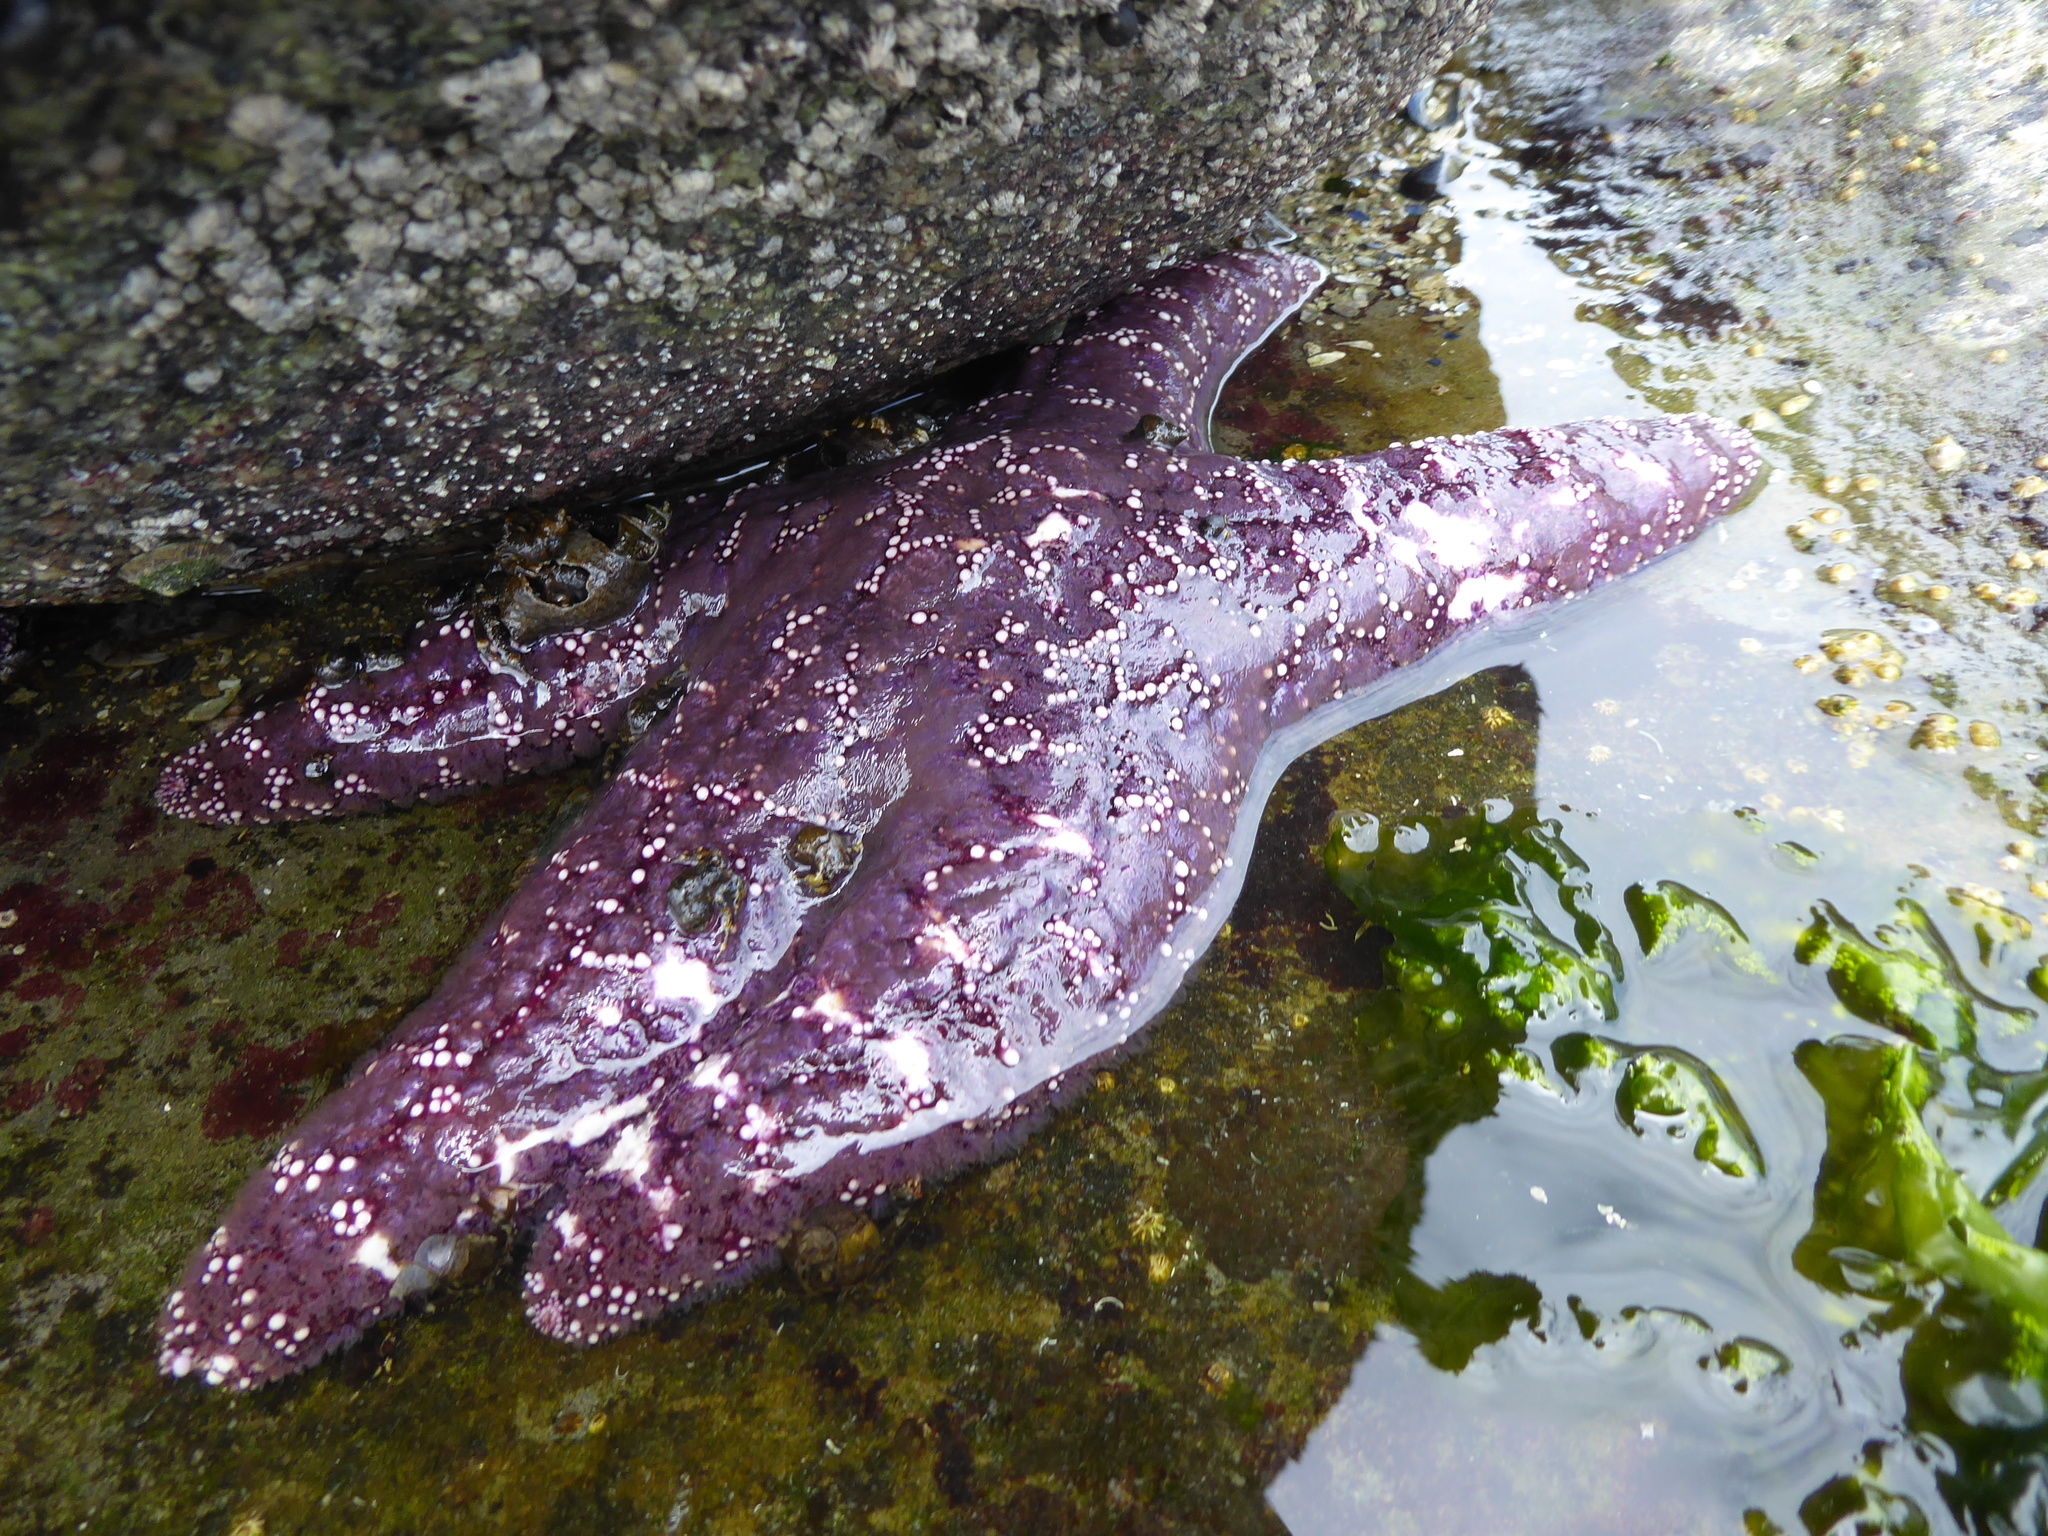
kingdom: Animalia
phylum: Echinodermata
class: Asteroidea
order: Forcipulatida
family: Asteriidae
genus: Pisaster
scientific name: Pisaster ochraceus
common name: Ochre stars
